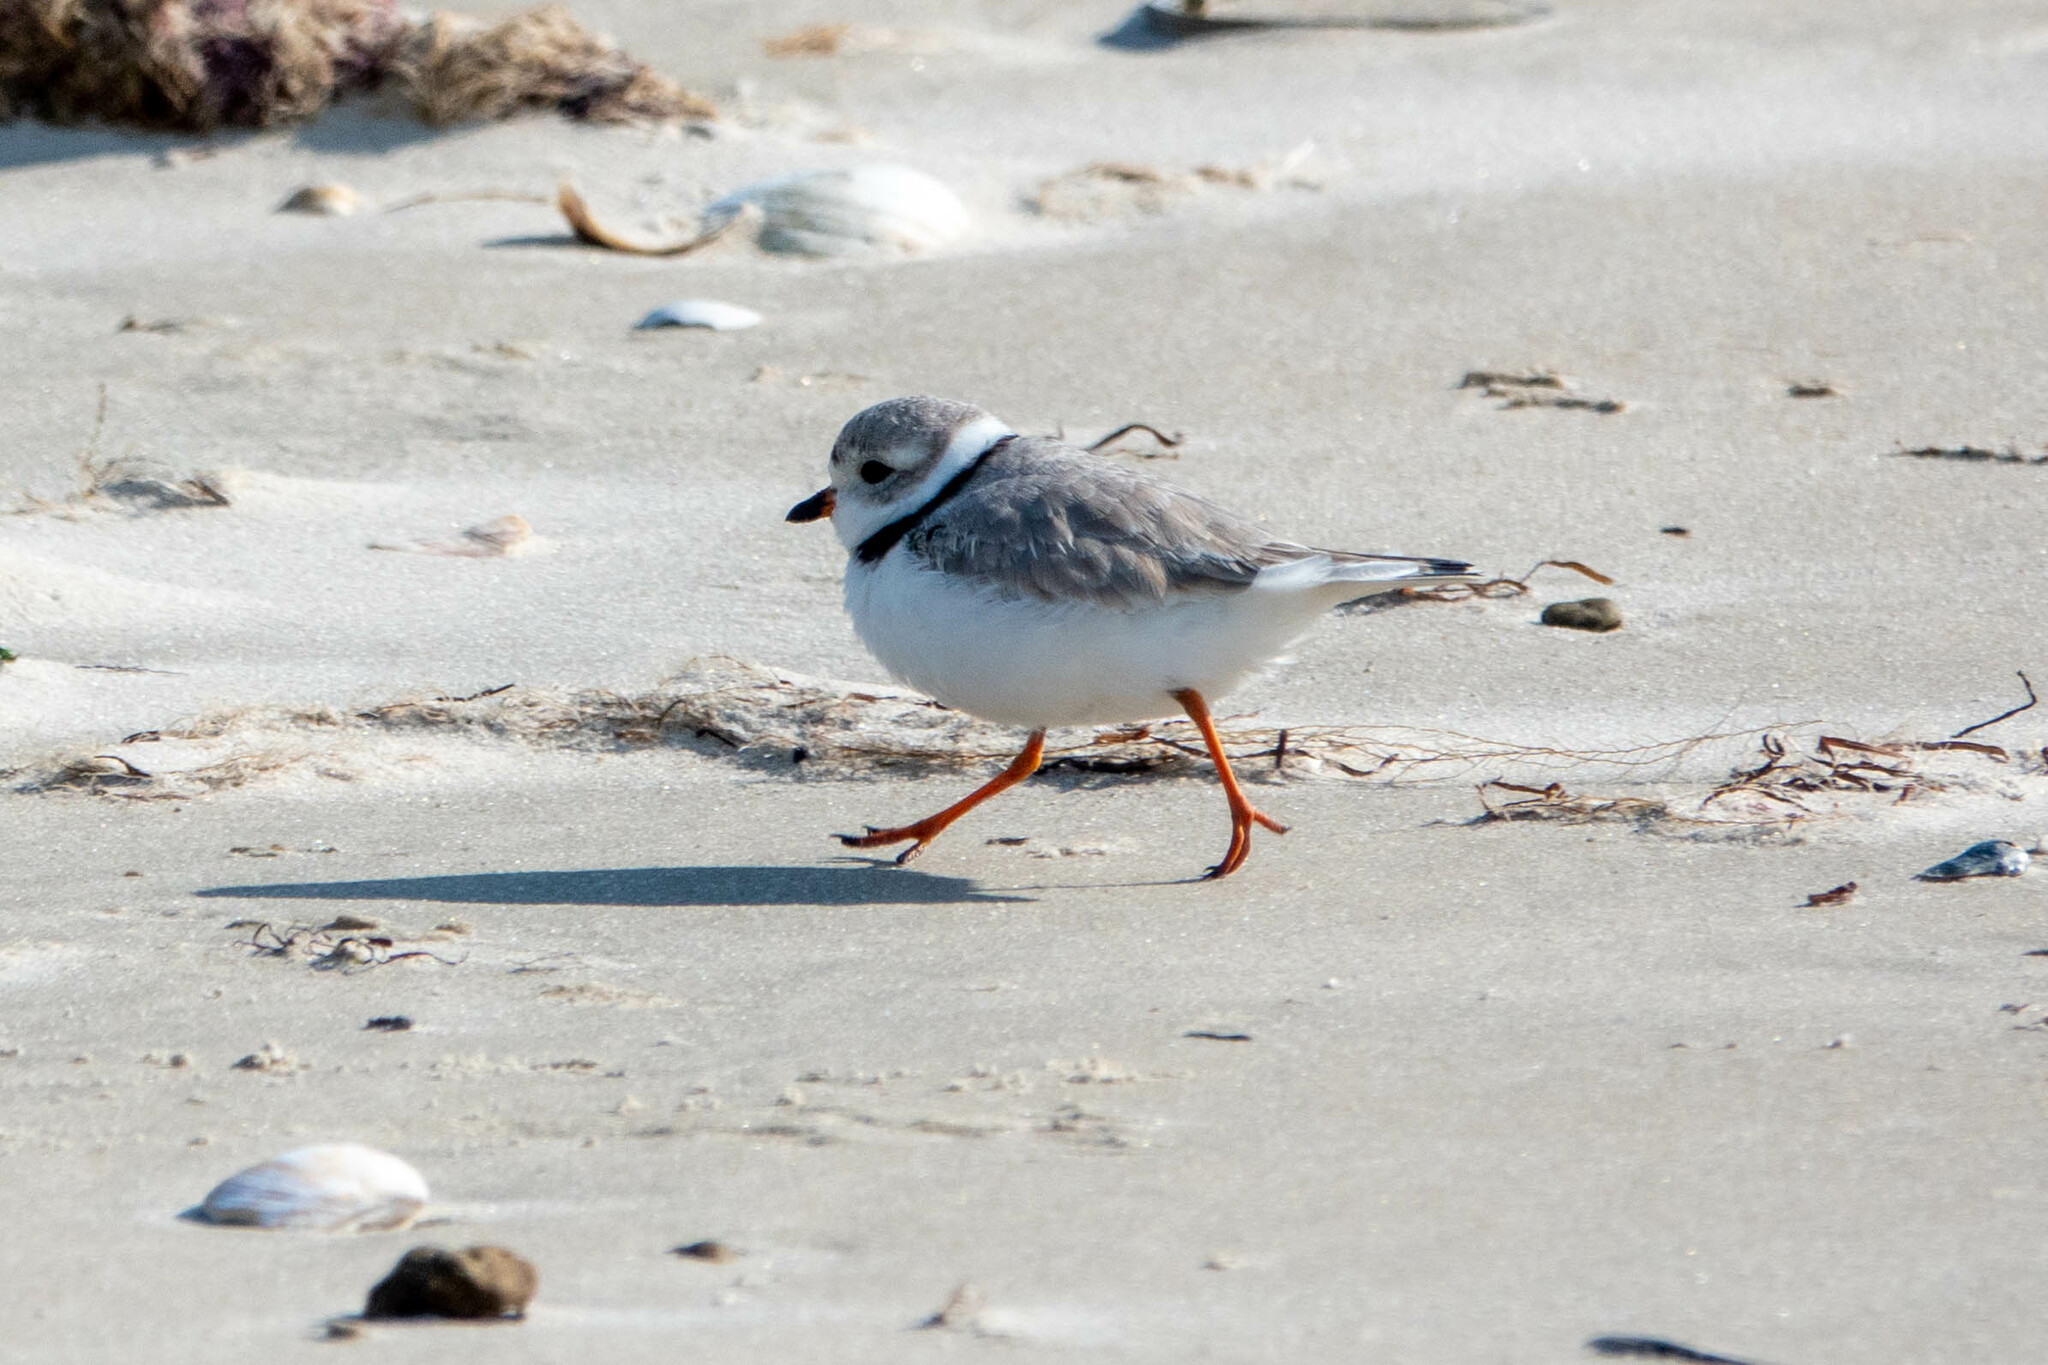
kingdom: Animalia
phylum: Chordata
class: Aves
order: Charadriiformes
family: Charadriidae
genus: Charadrius
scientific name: Charadrius melodus
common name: Piping plover
